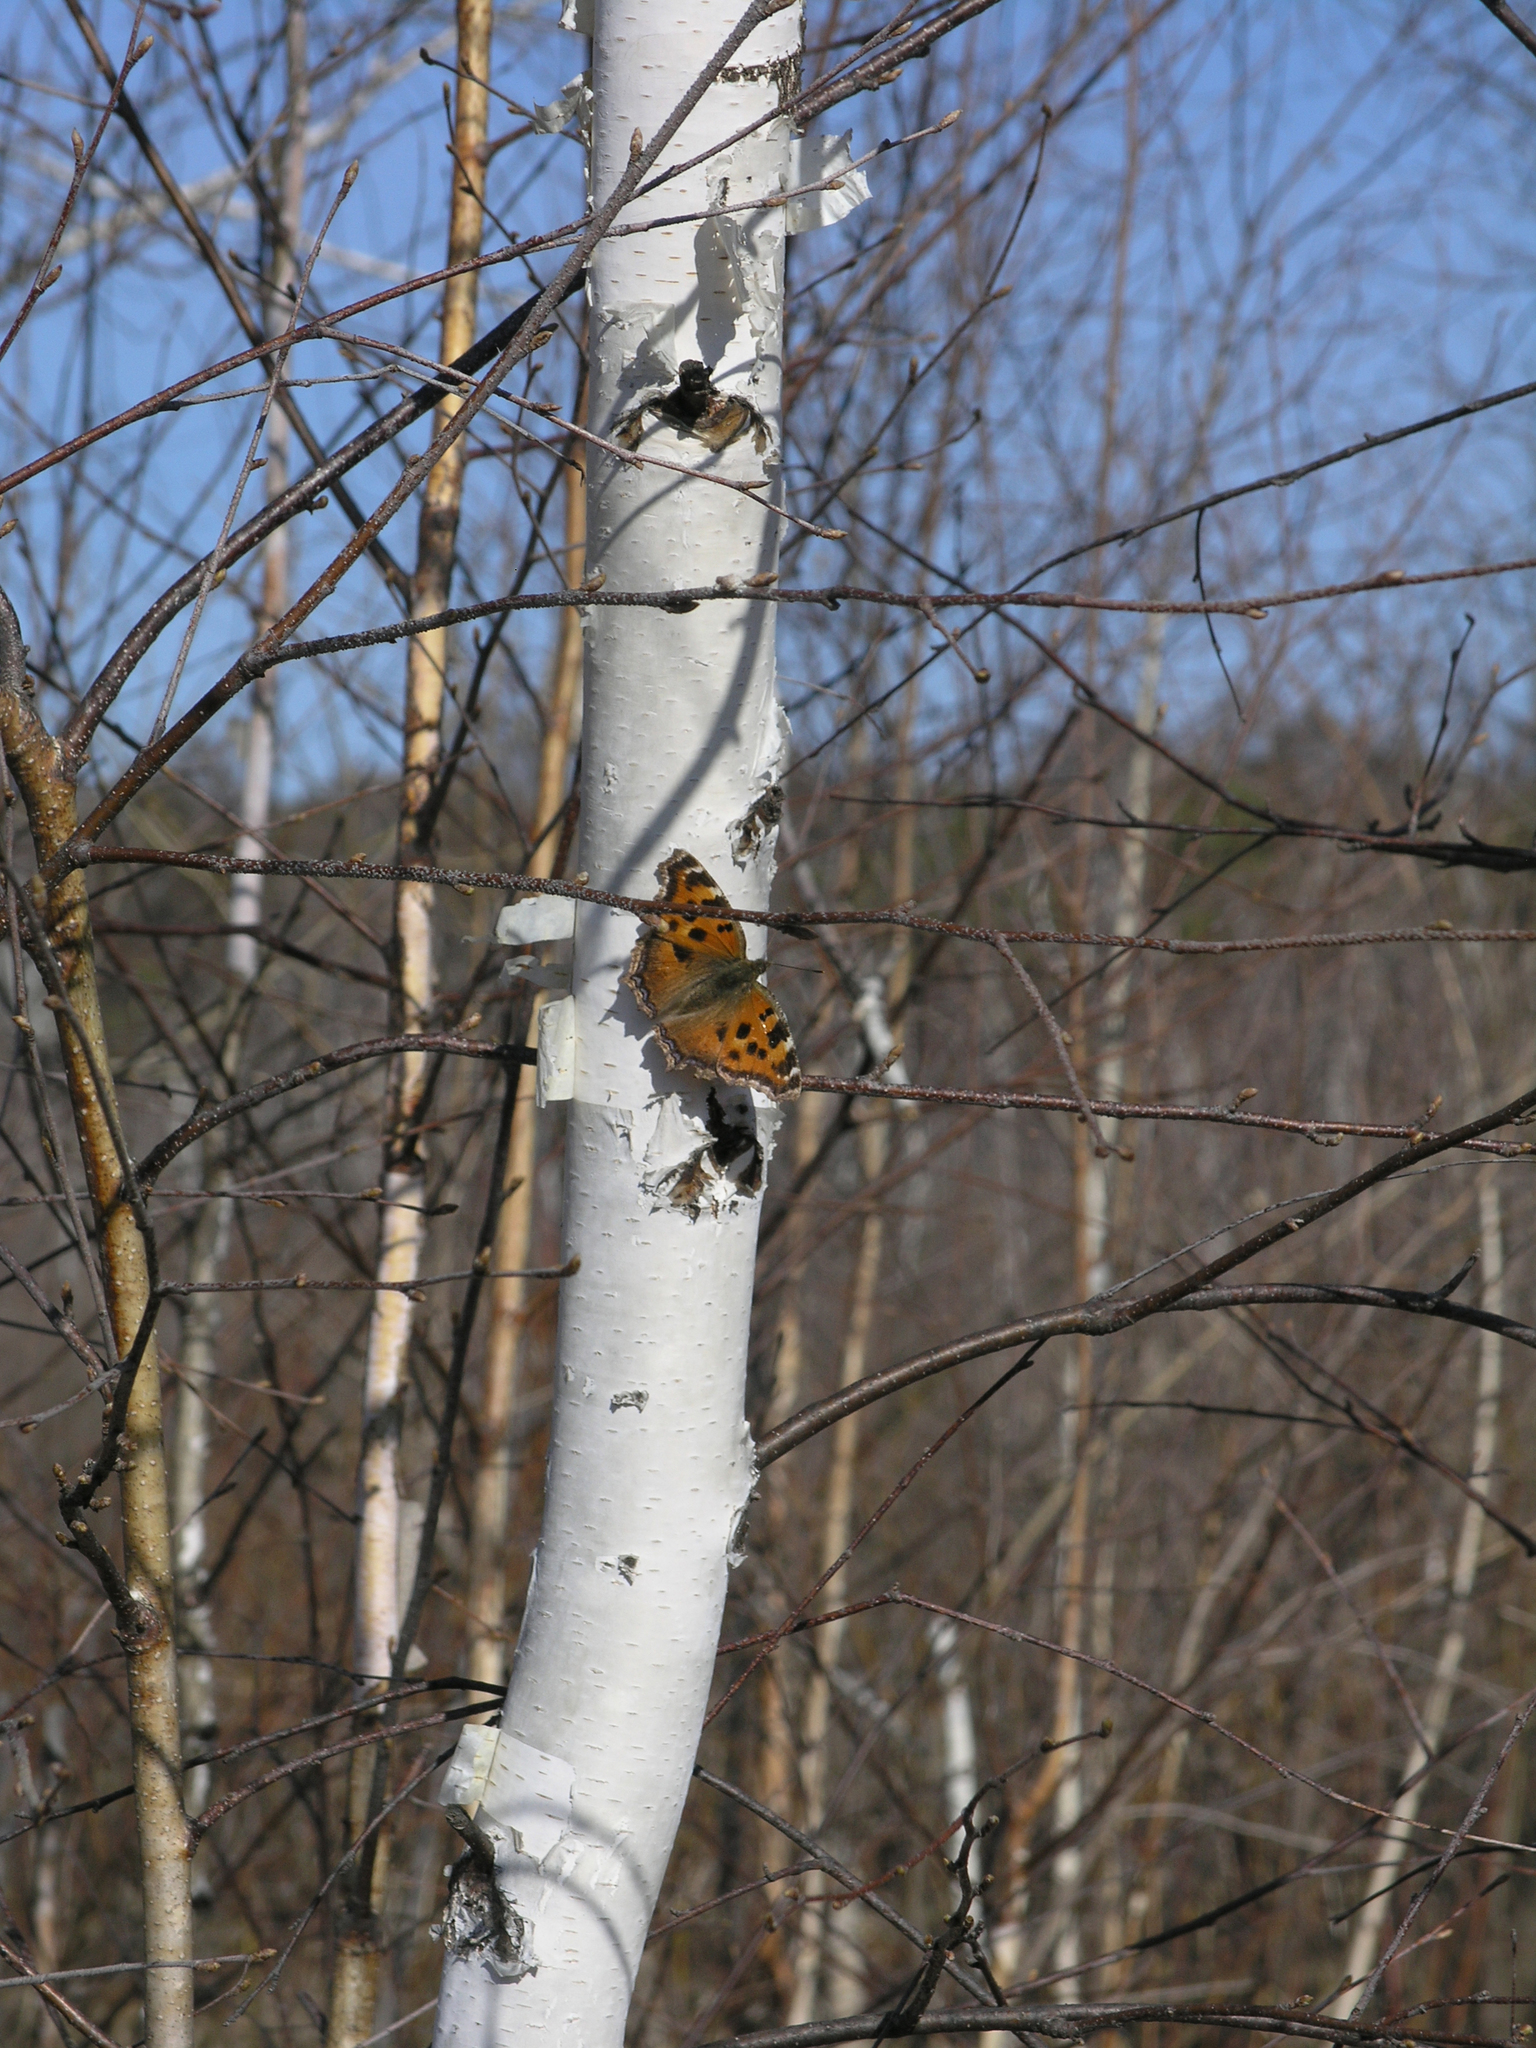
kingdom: Animalia
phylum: Arthropoda
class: Insecta
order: Lepidoptera
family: Nymphalidae
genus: Nymphalis
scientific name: Nymphalis xanthomelas
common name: Scarce tortoiseshell
